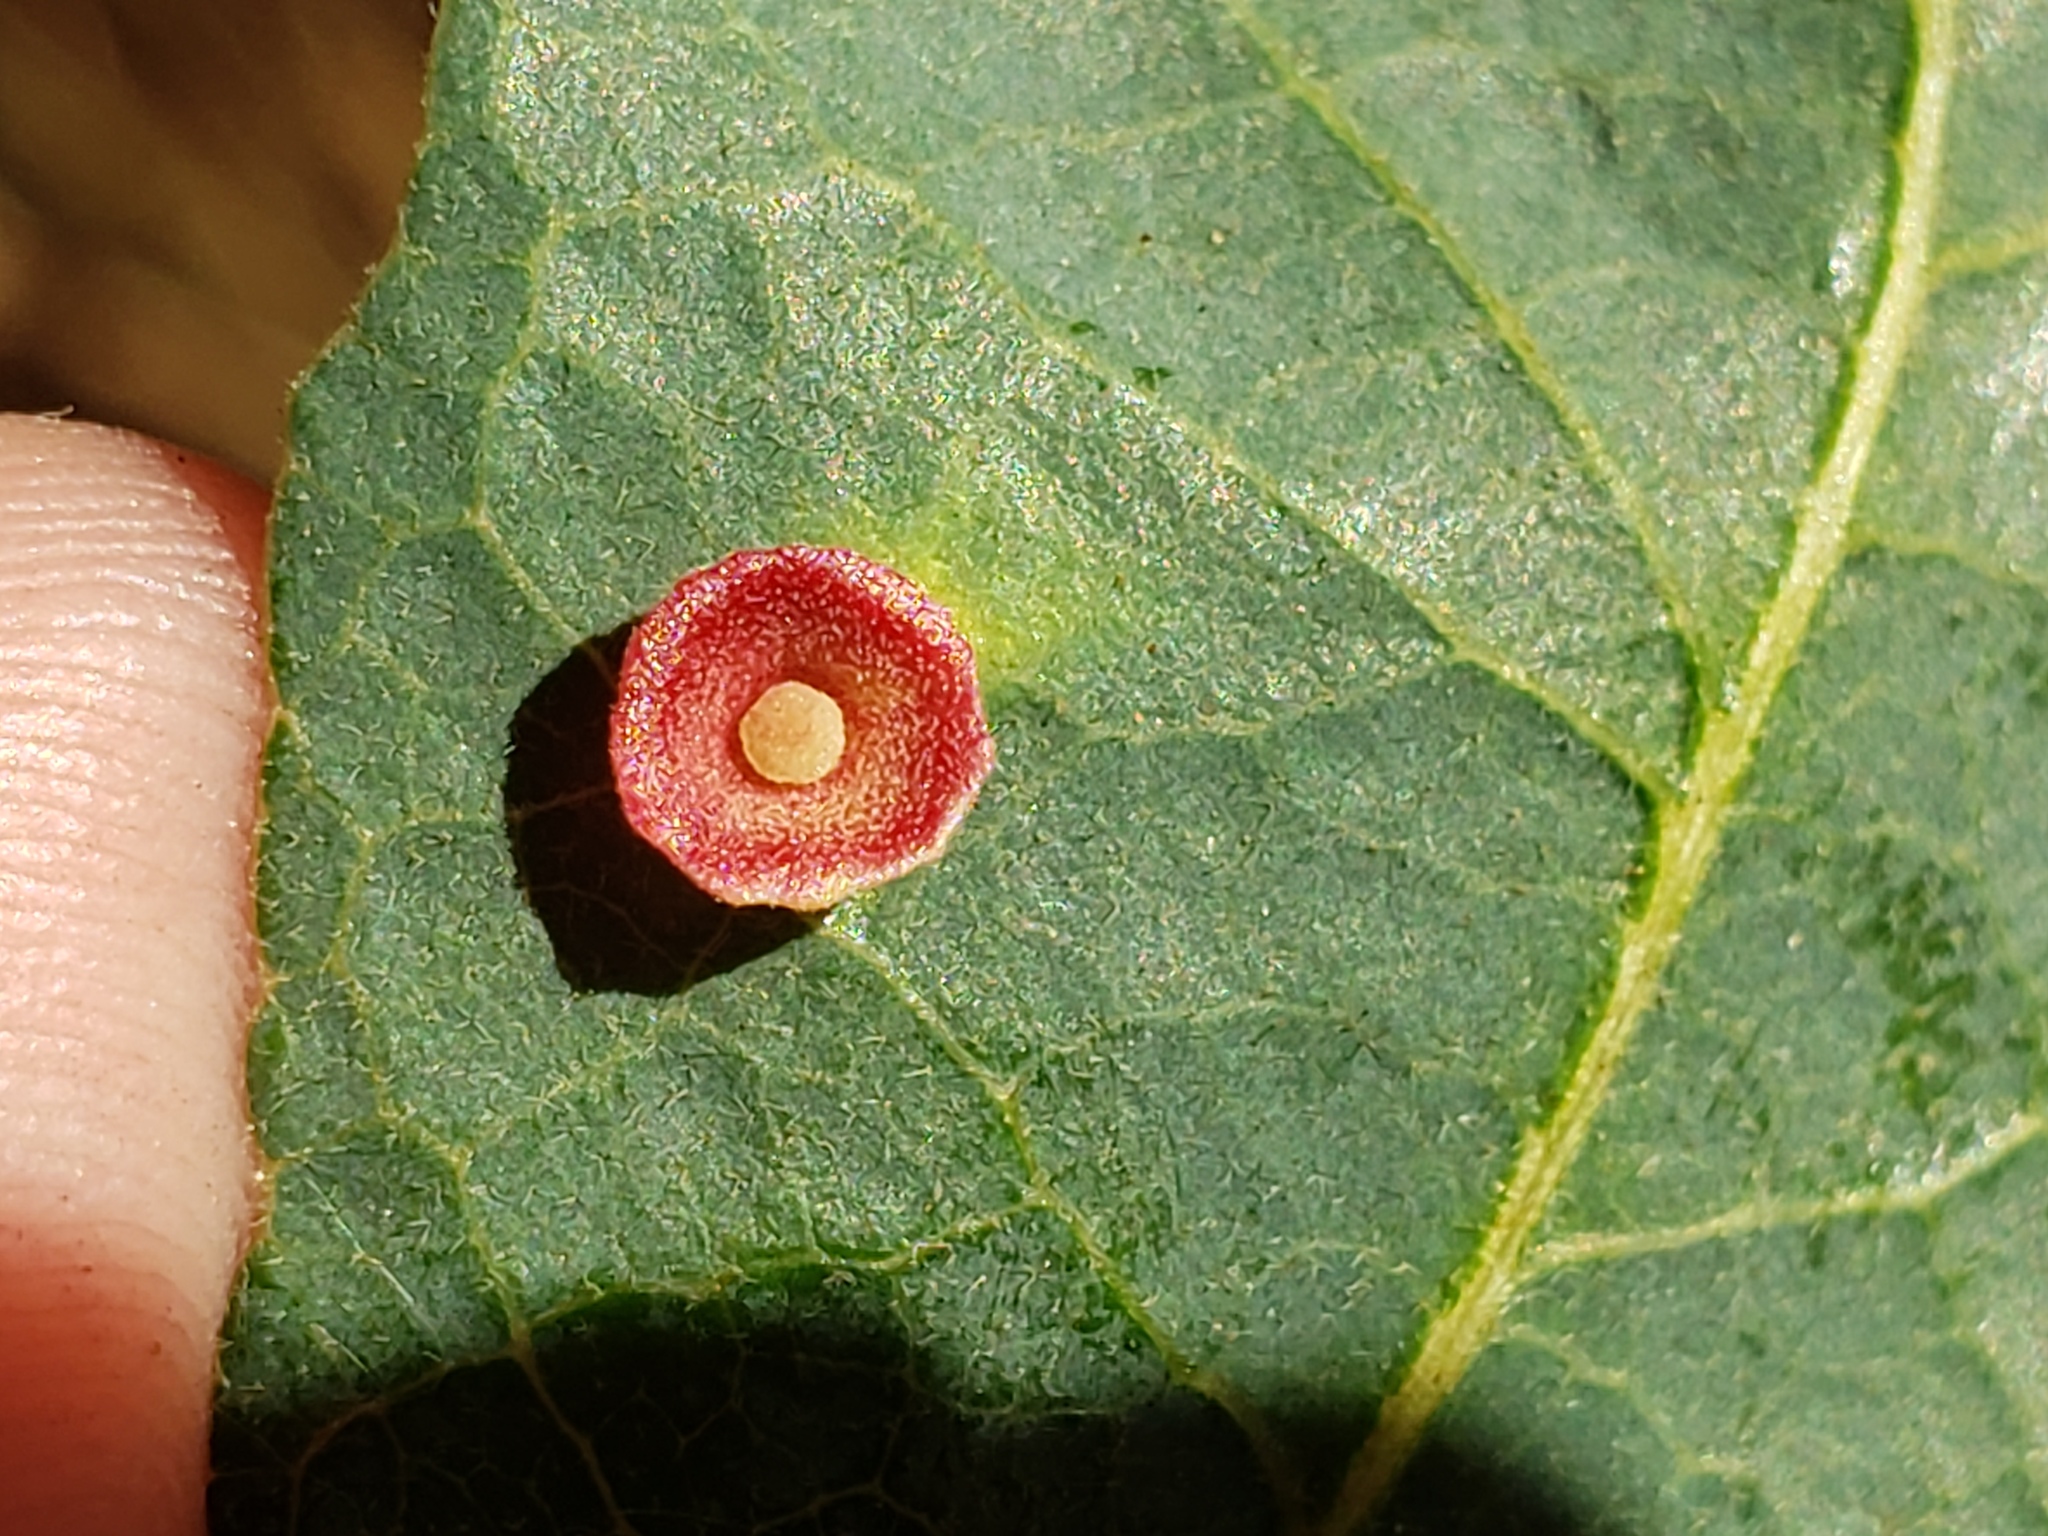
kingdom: Animalia
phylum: Arthropoda
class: Insecta
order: Hymenoptera
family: Cynipidae
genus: Andricus
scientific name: Andricus
